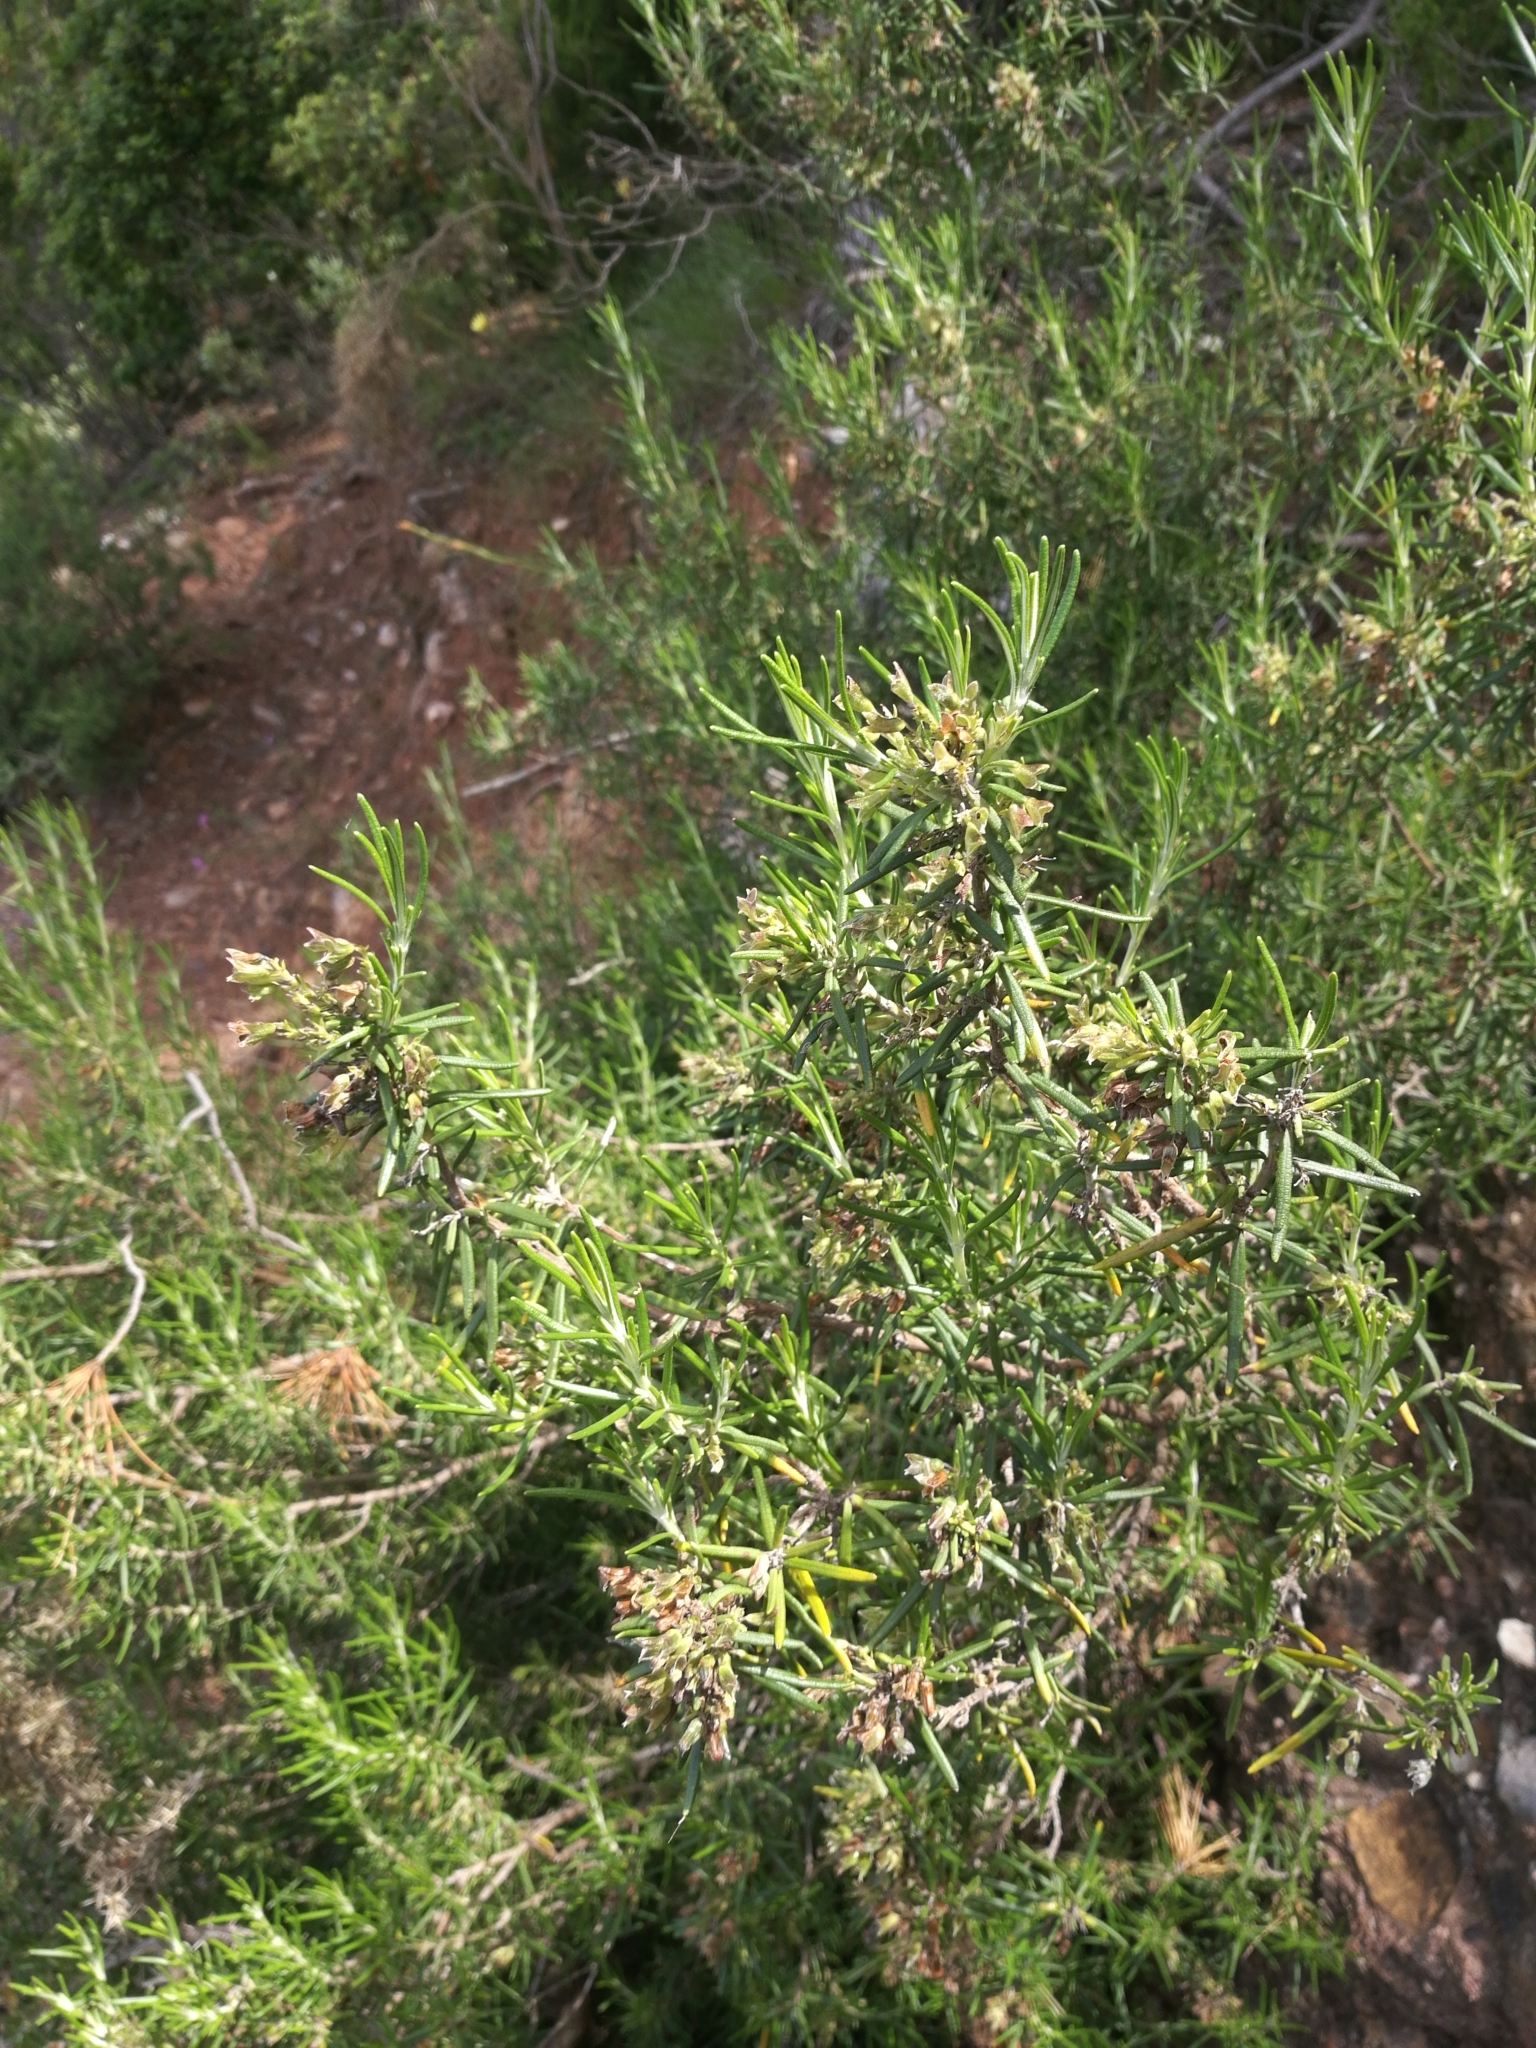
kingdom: Plantae
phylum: Tracheophyta
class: Magnoliopsida
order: Lamiales
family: Lamiaceae
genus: Salvia
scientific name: Salvia rosmarinus
